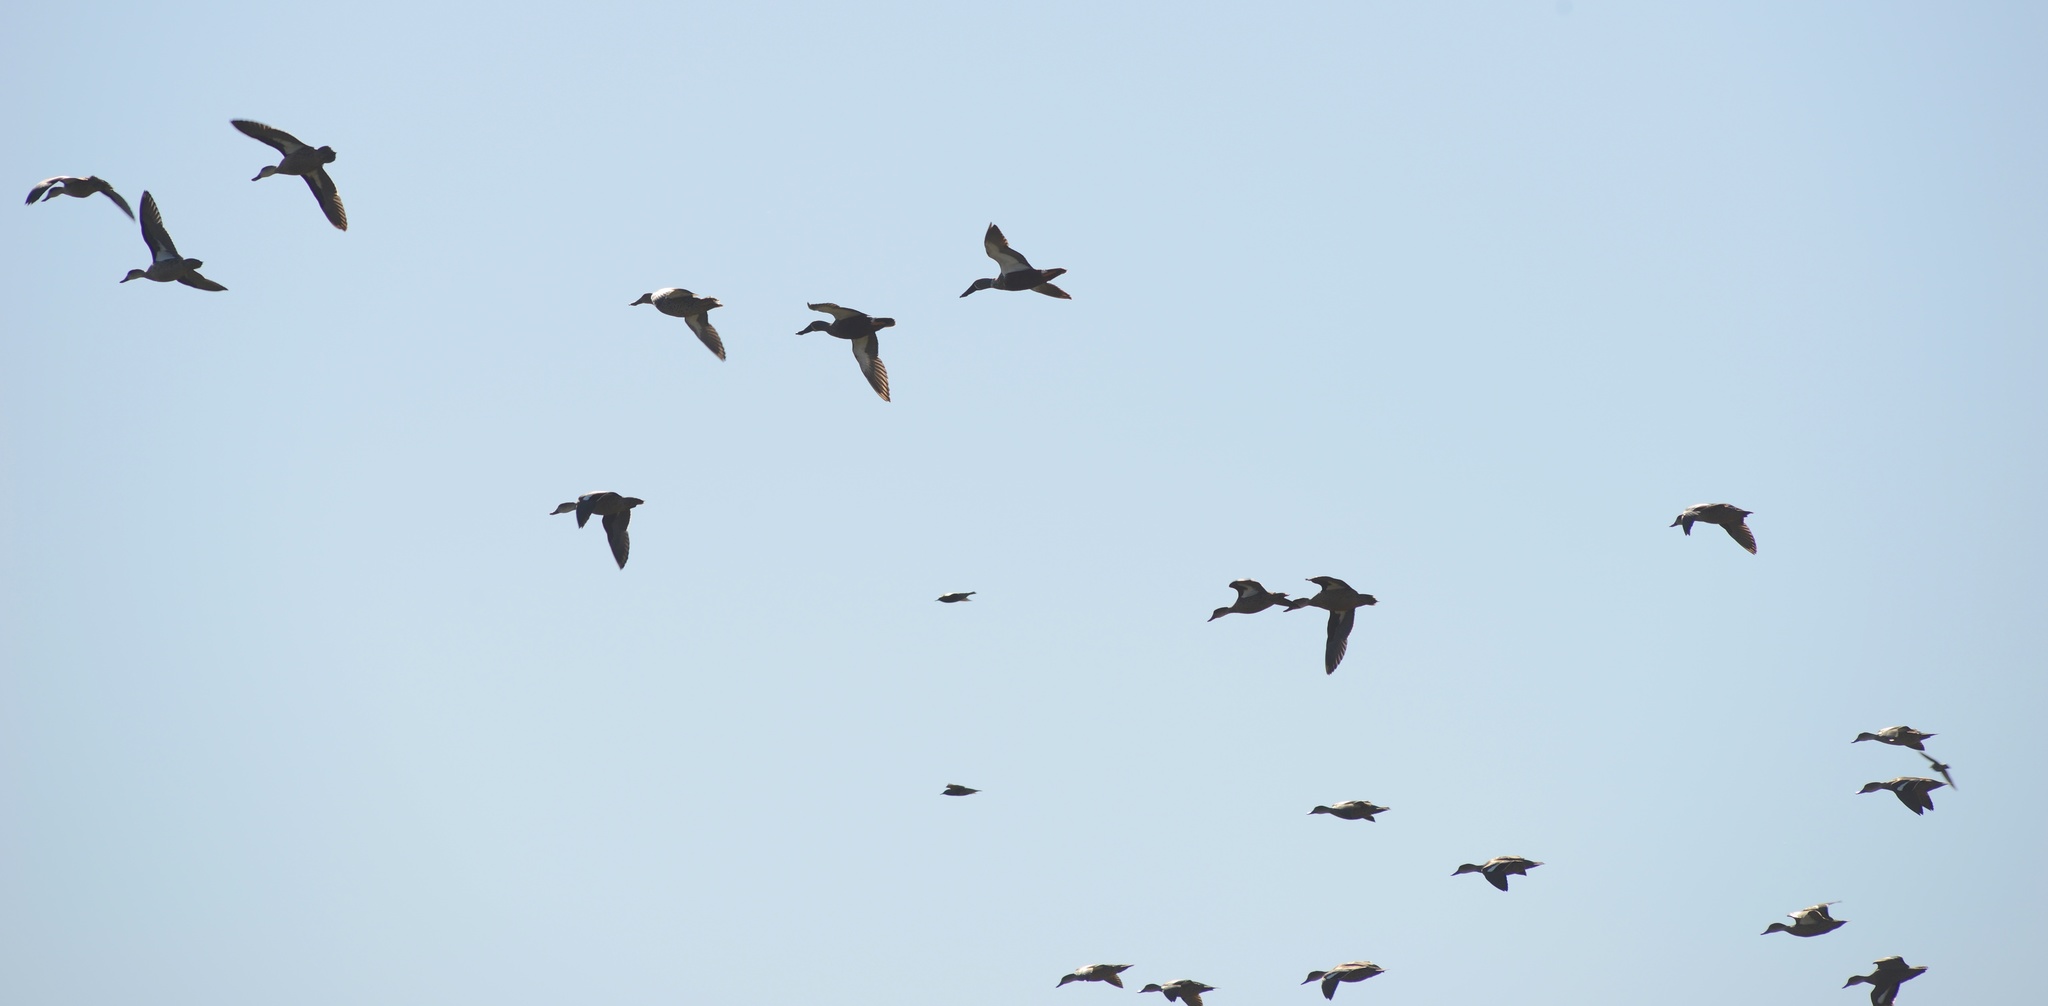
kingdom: Animalia
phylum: Chordata
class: Aves
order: Anseriformes
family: Anatidae
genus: Anas
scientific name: Anas gracilis
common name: Grey teal
